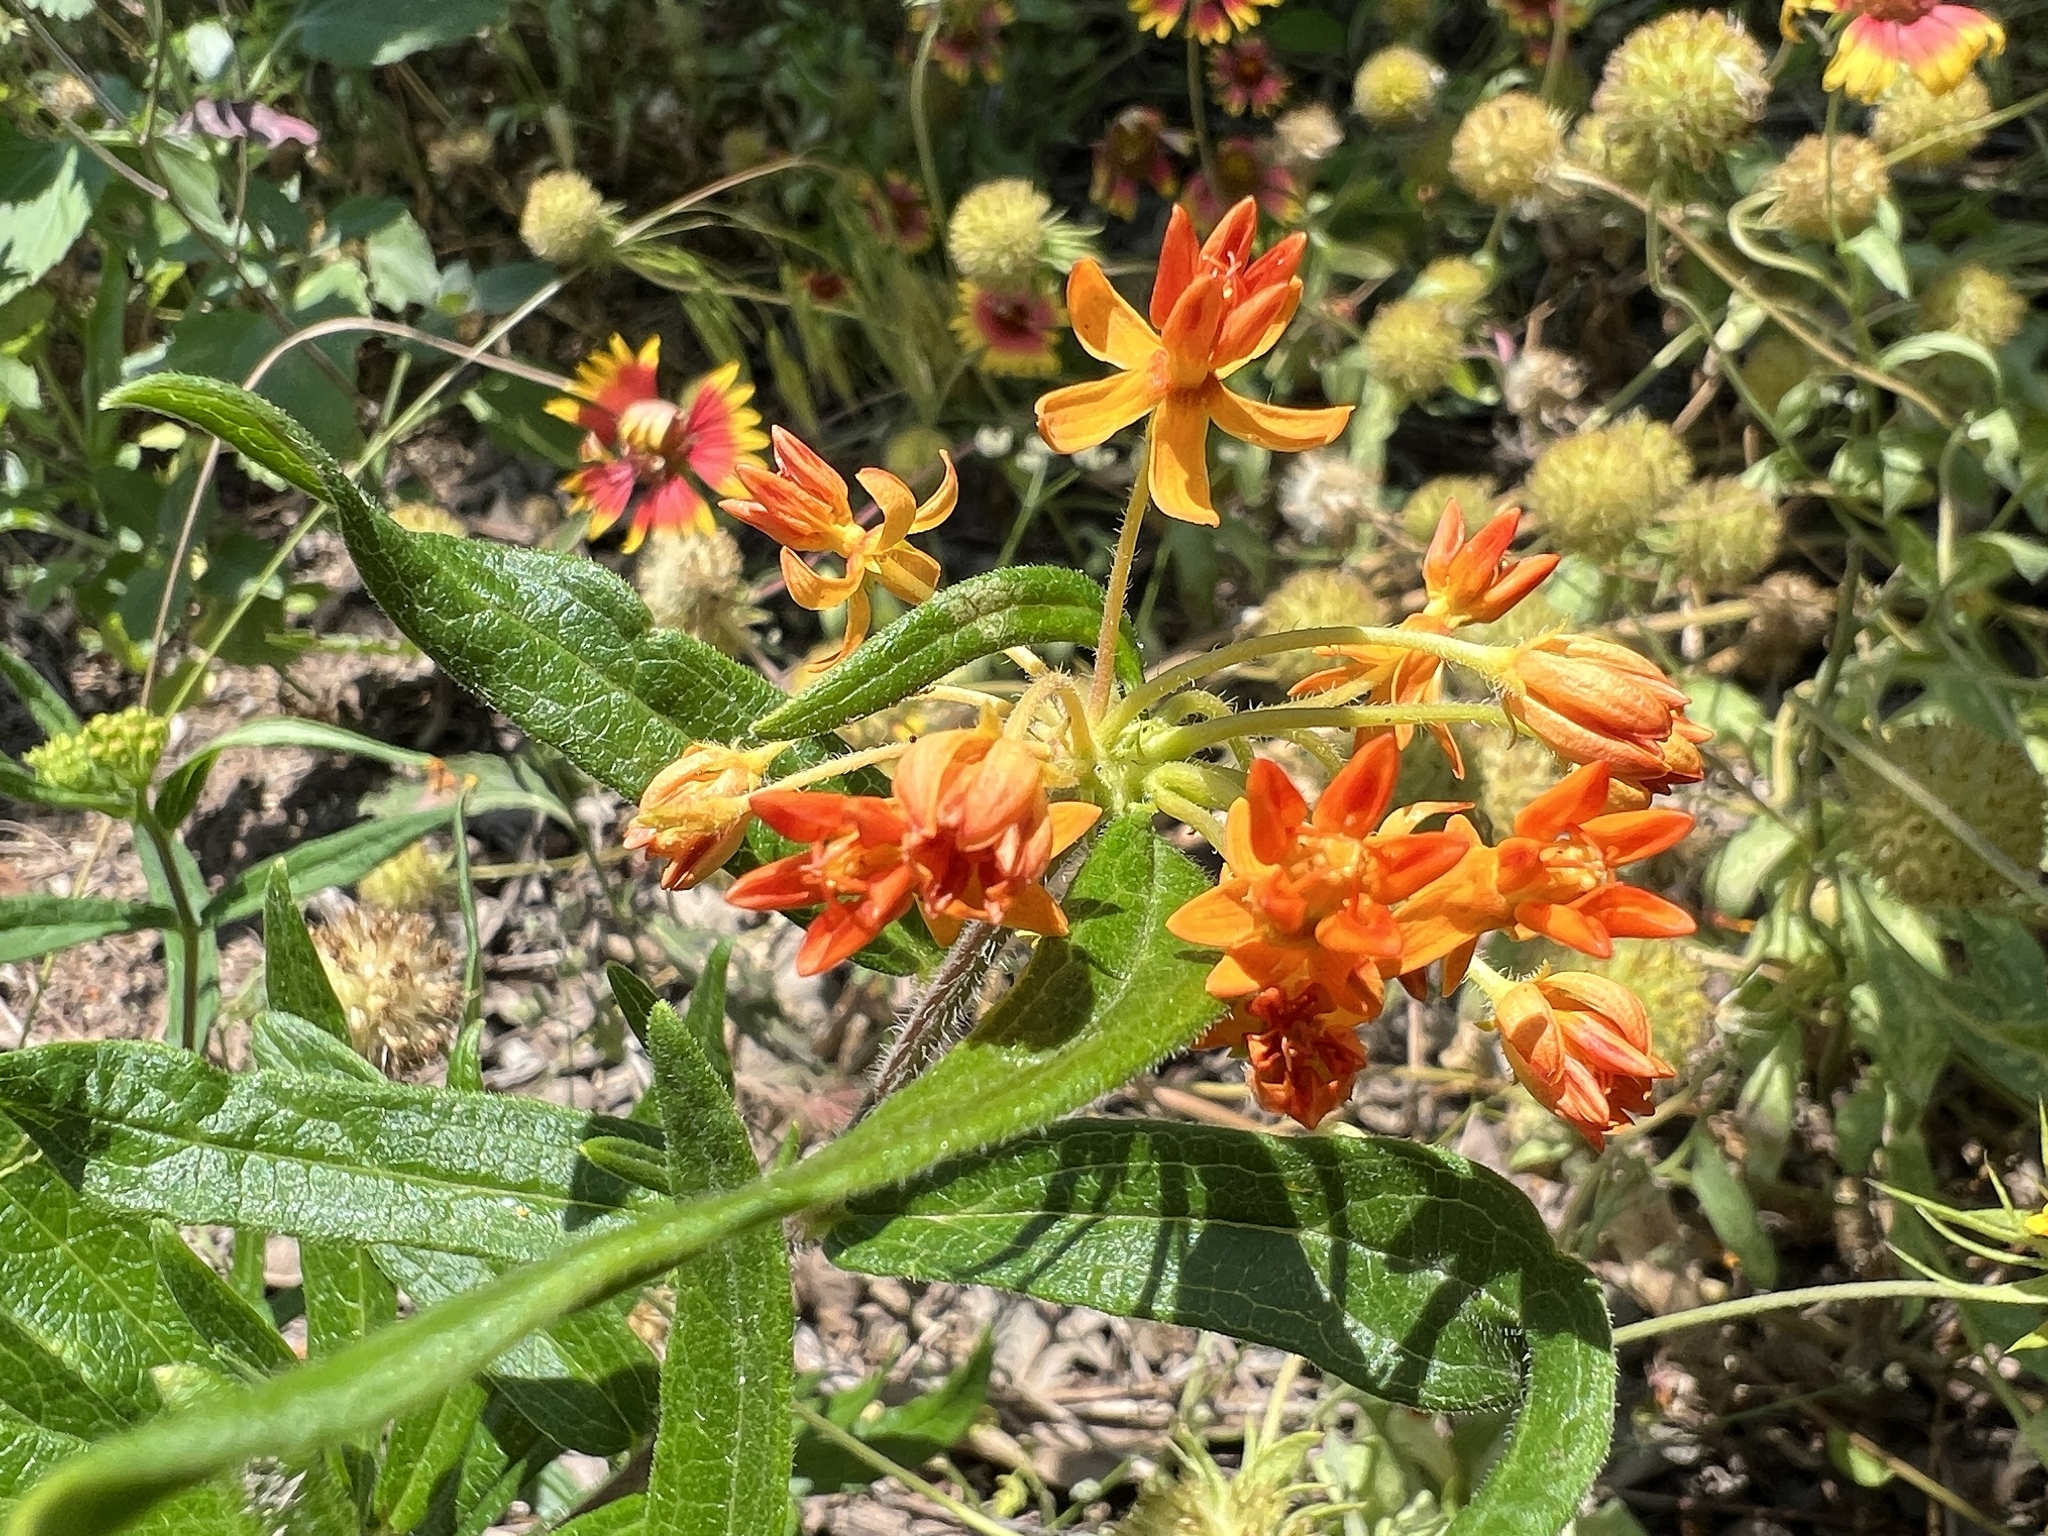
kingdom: Plantae
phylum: Tracheophyta
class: Magnoliopsida
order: Gentianales
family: Apocynaceae
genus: Asclepias
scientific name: Asclepias tuberosa
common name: Butterfly milkweed
